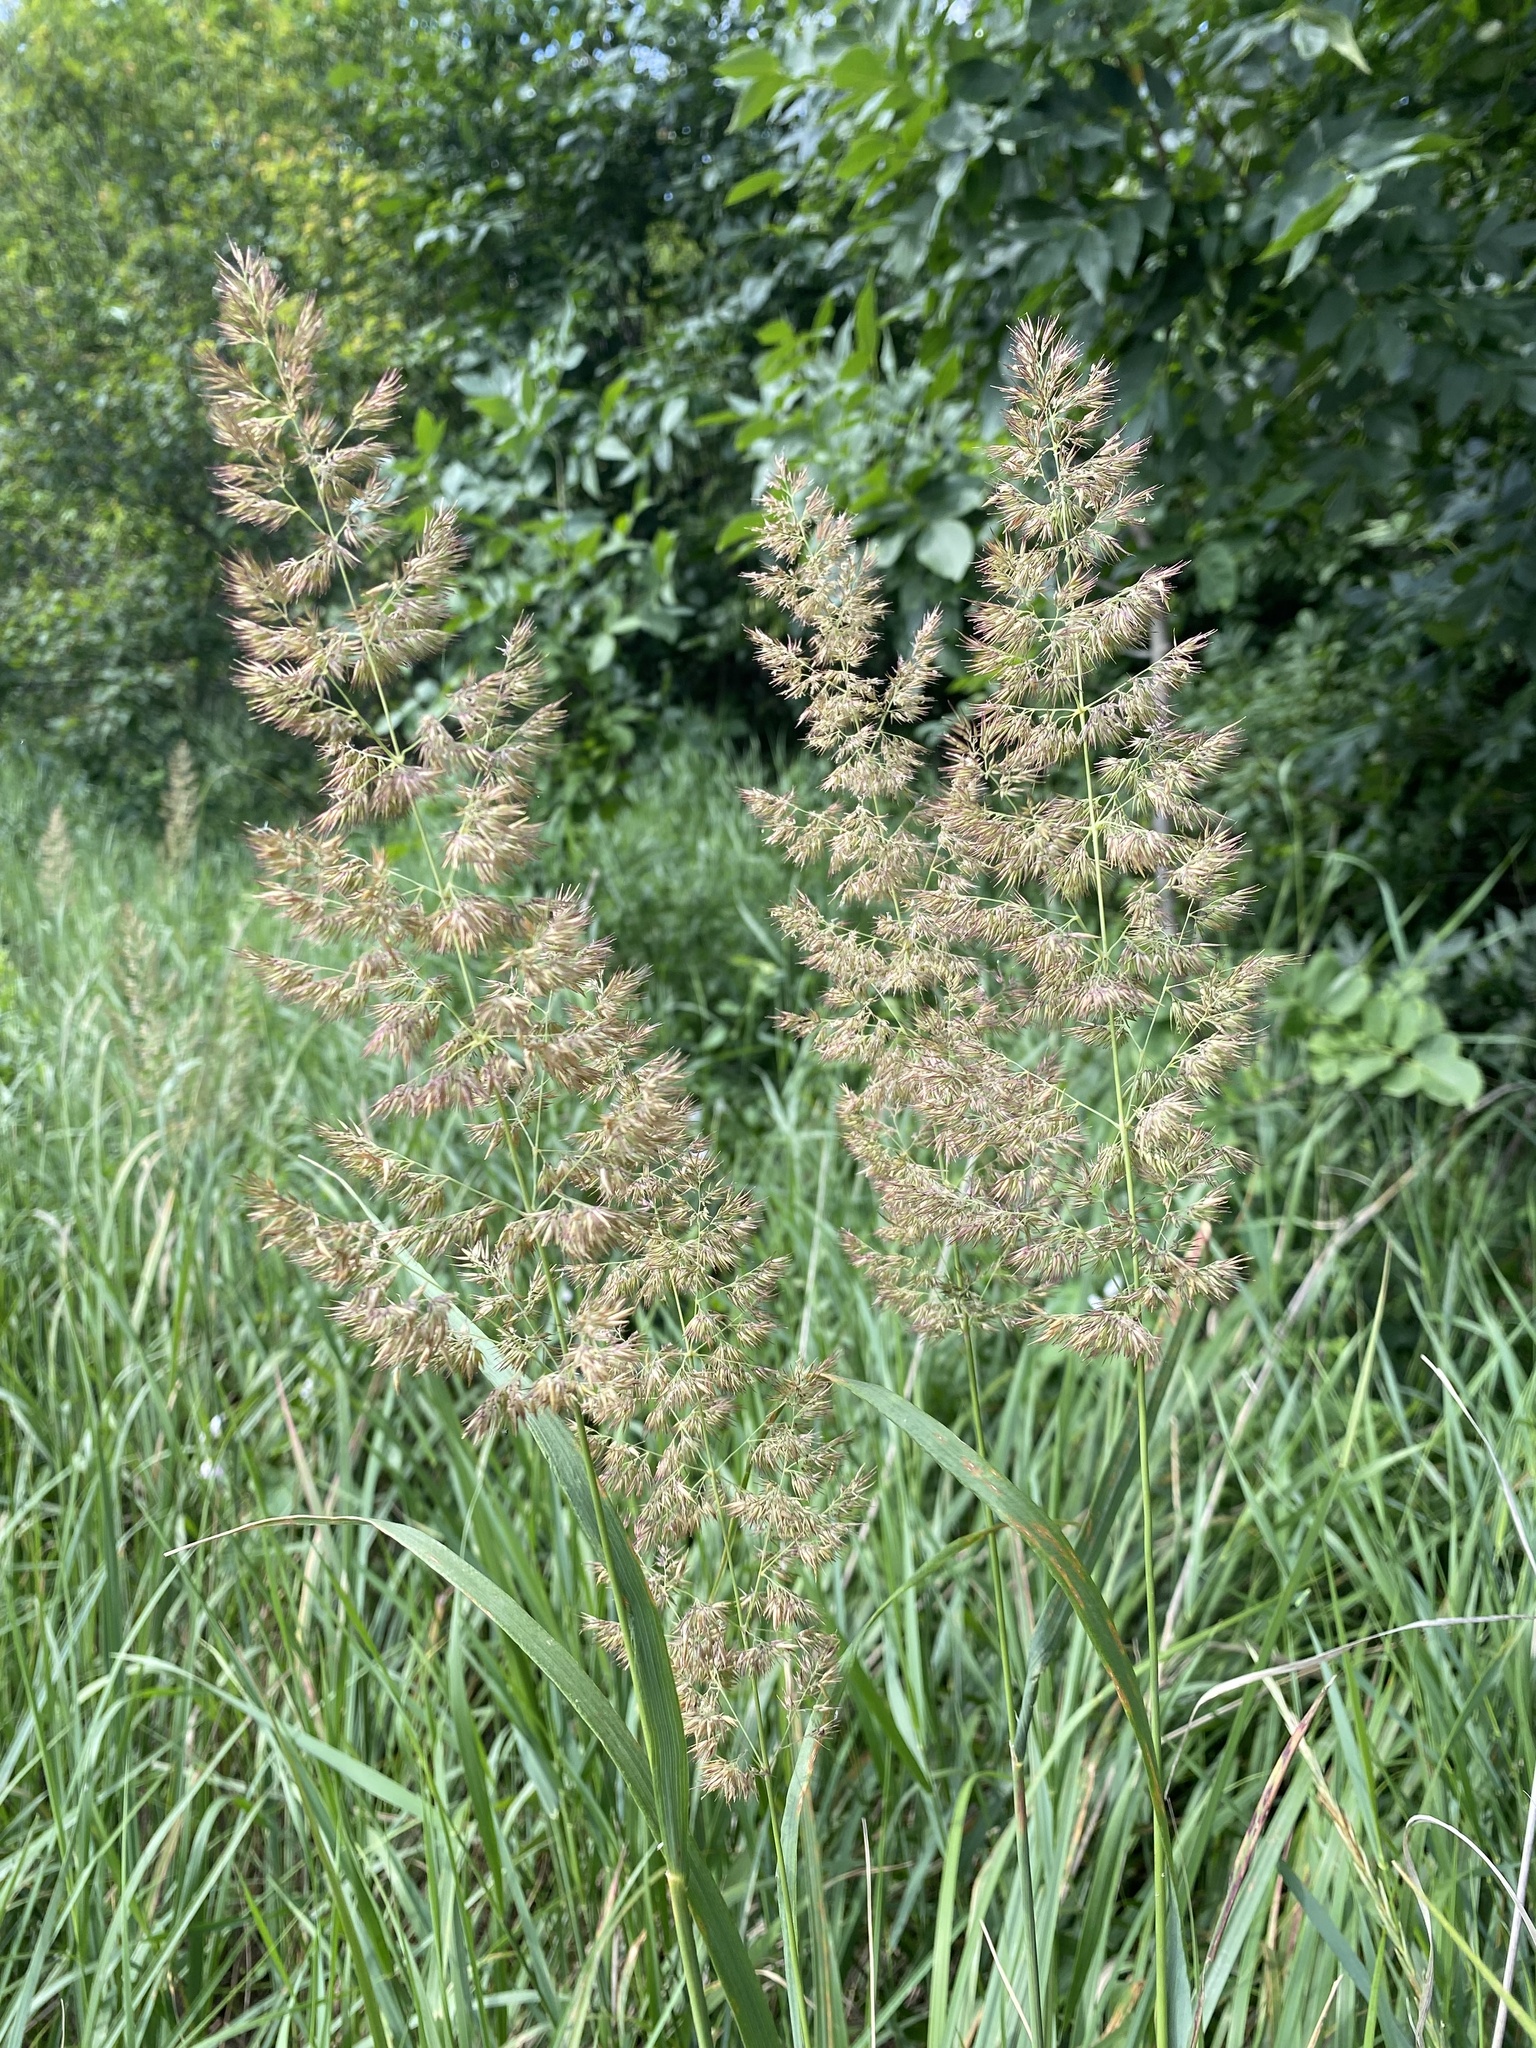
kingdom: Plantae
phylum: Tracheophyta
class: Liliopsida
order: Poales
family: Poaceae
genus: Calamagrostis
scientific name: Calamagrostis epigejos
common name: Wood small-reed
